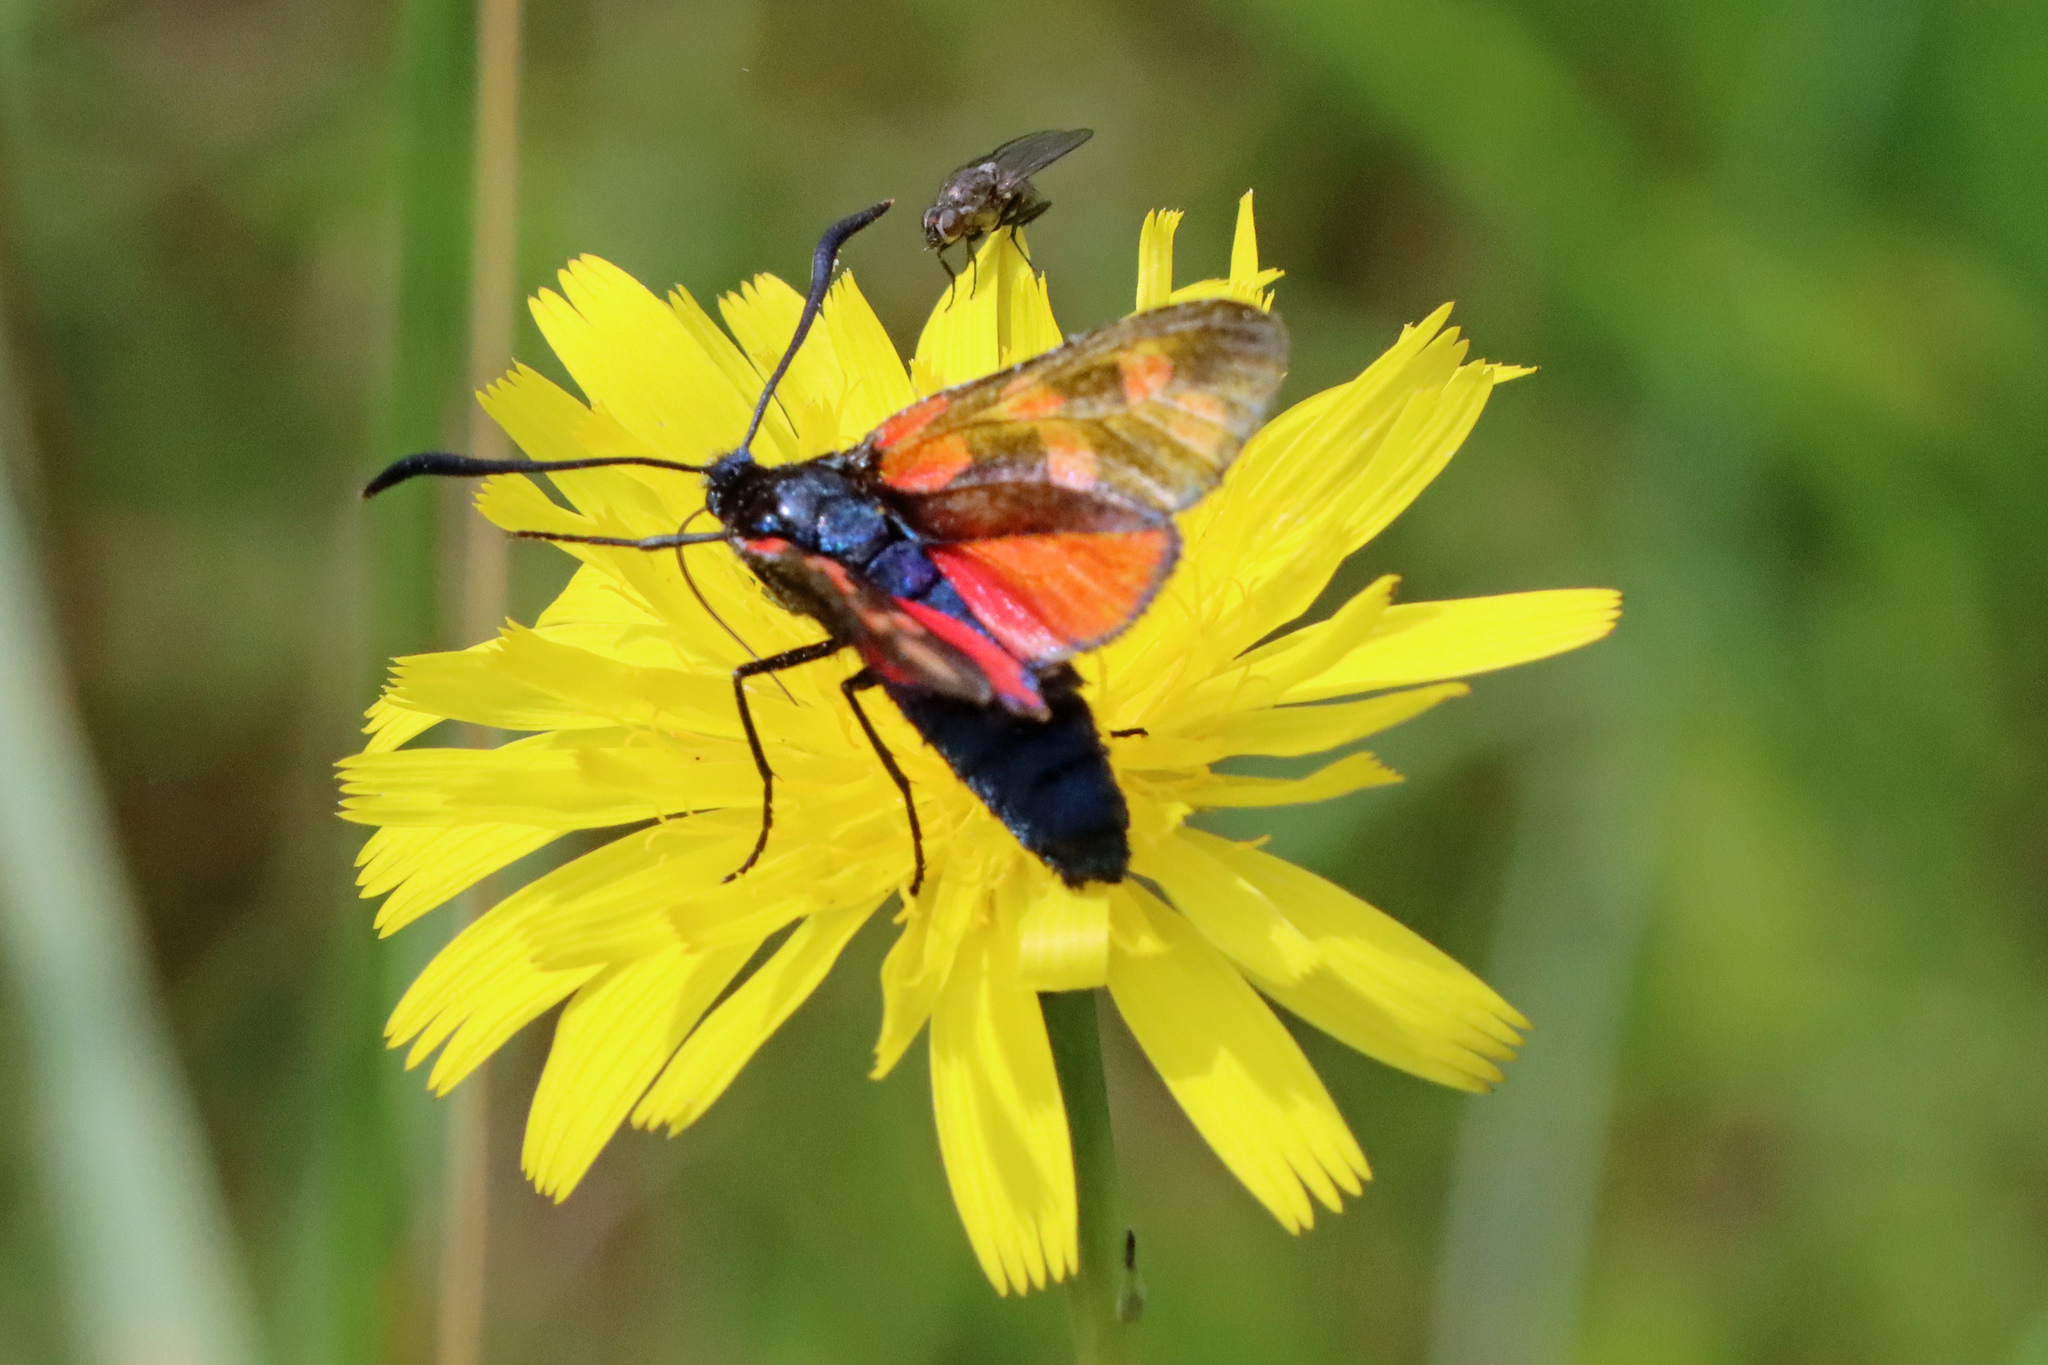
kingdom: Animalia
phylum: Arthropoda
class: Insecta
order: Lepidoptera
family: Zygaenidae
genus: Zygaena
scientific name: Zygaena filipendulae
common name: Six-spot burnet
